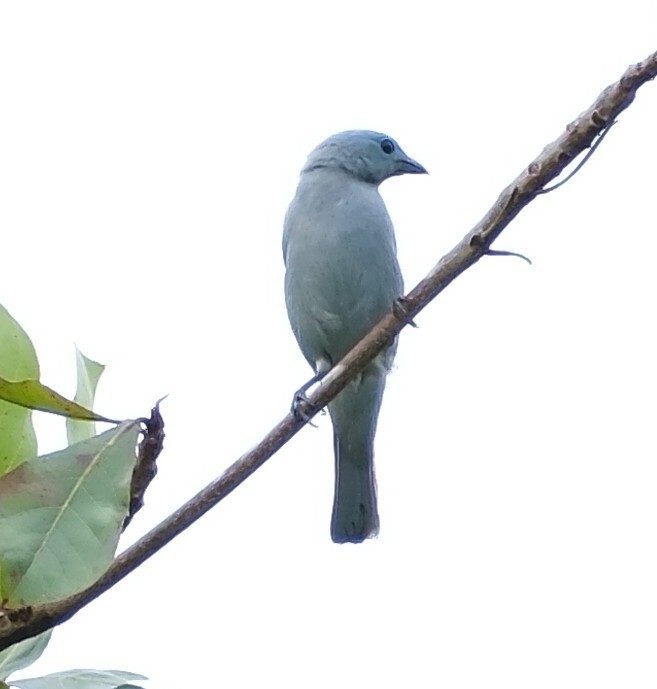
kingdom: Animalia
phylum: Chordata
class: Aves
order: Passeriformes
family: Thraupidae
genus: Thraupis
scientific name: Thraupis episcopus
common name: Blue-grey tanager
